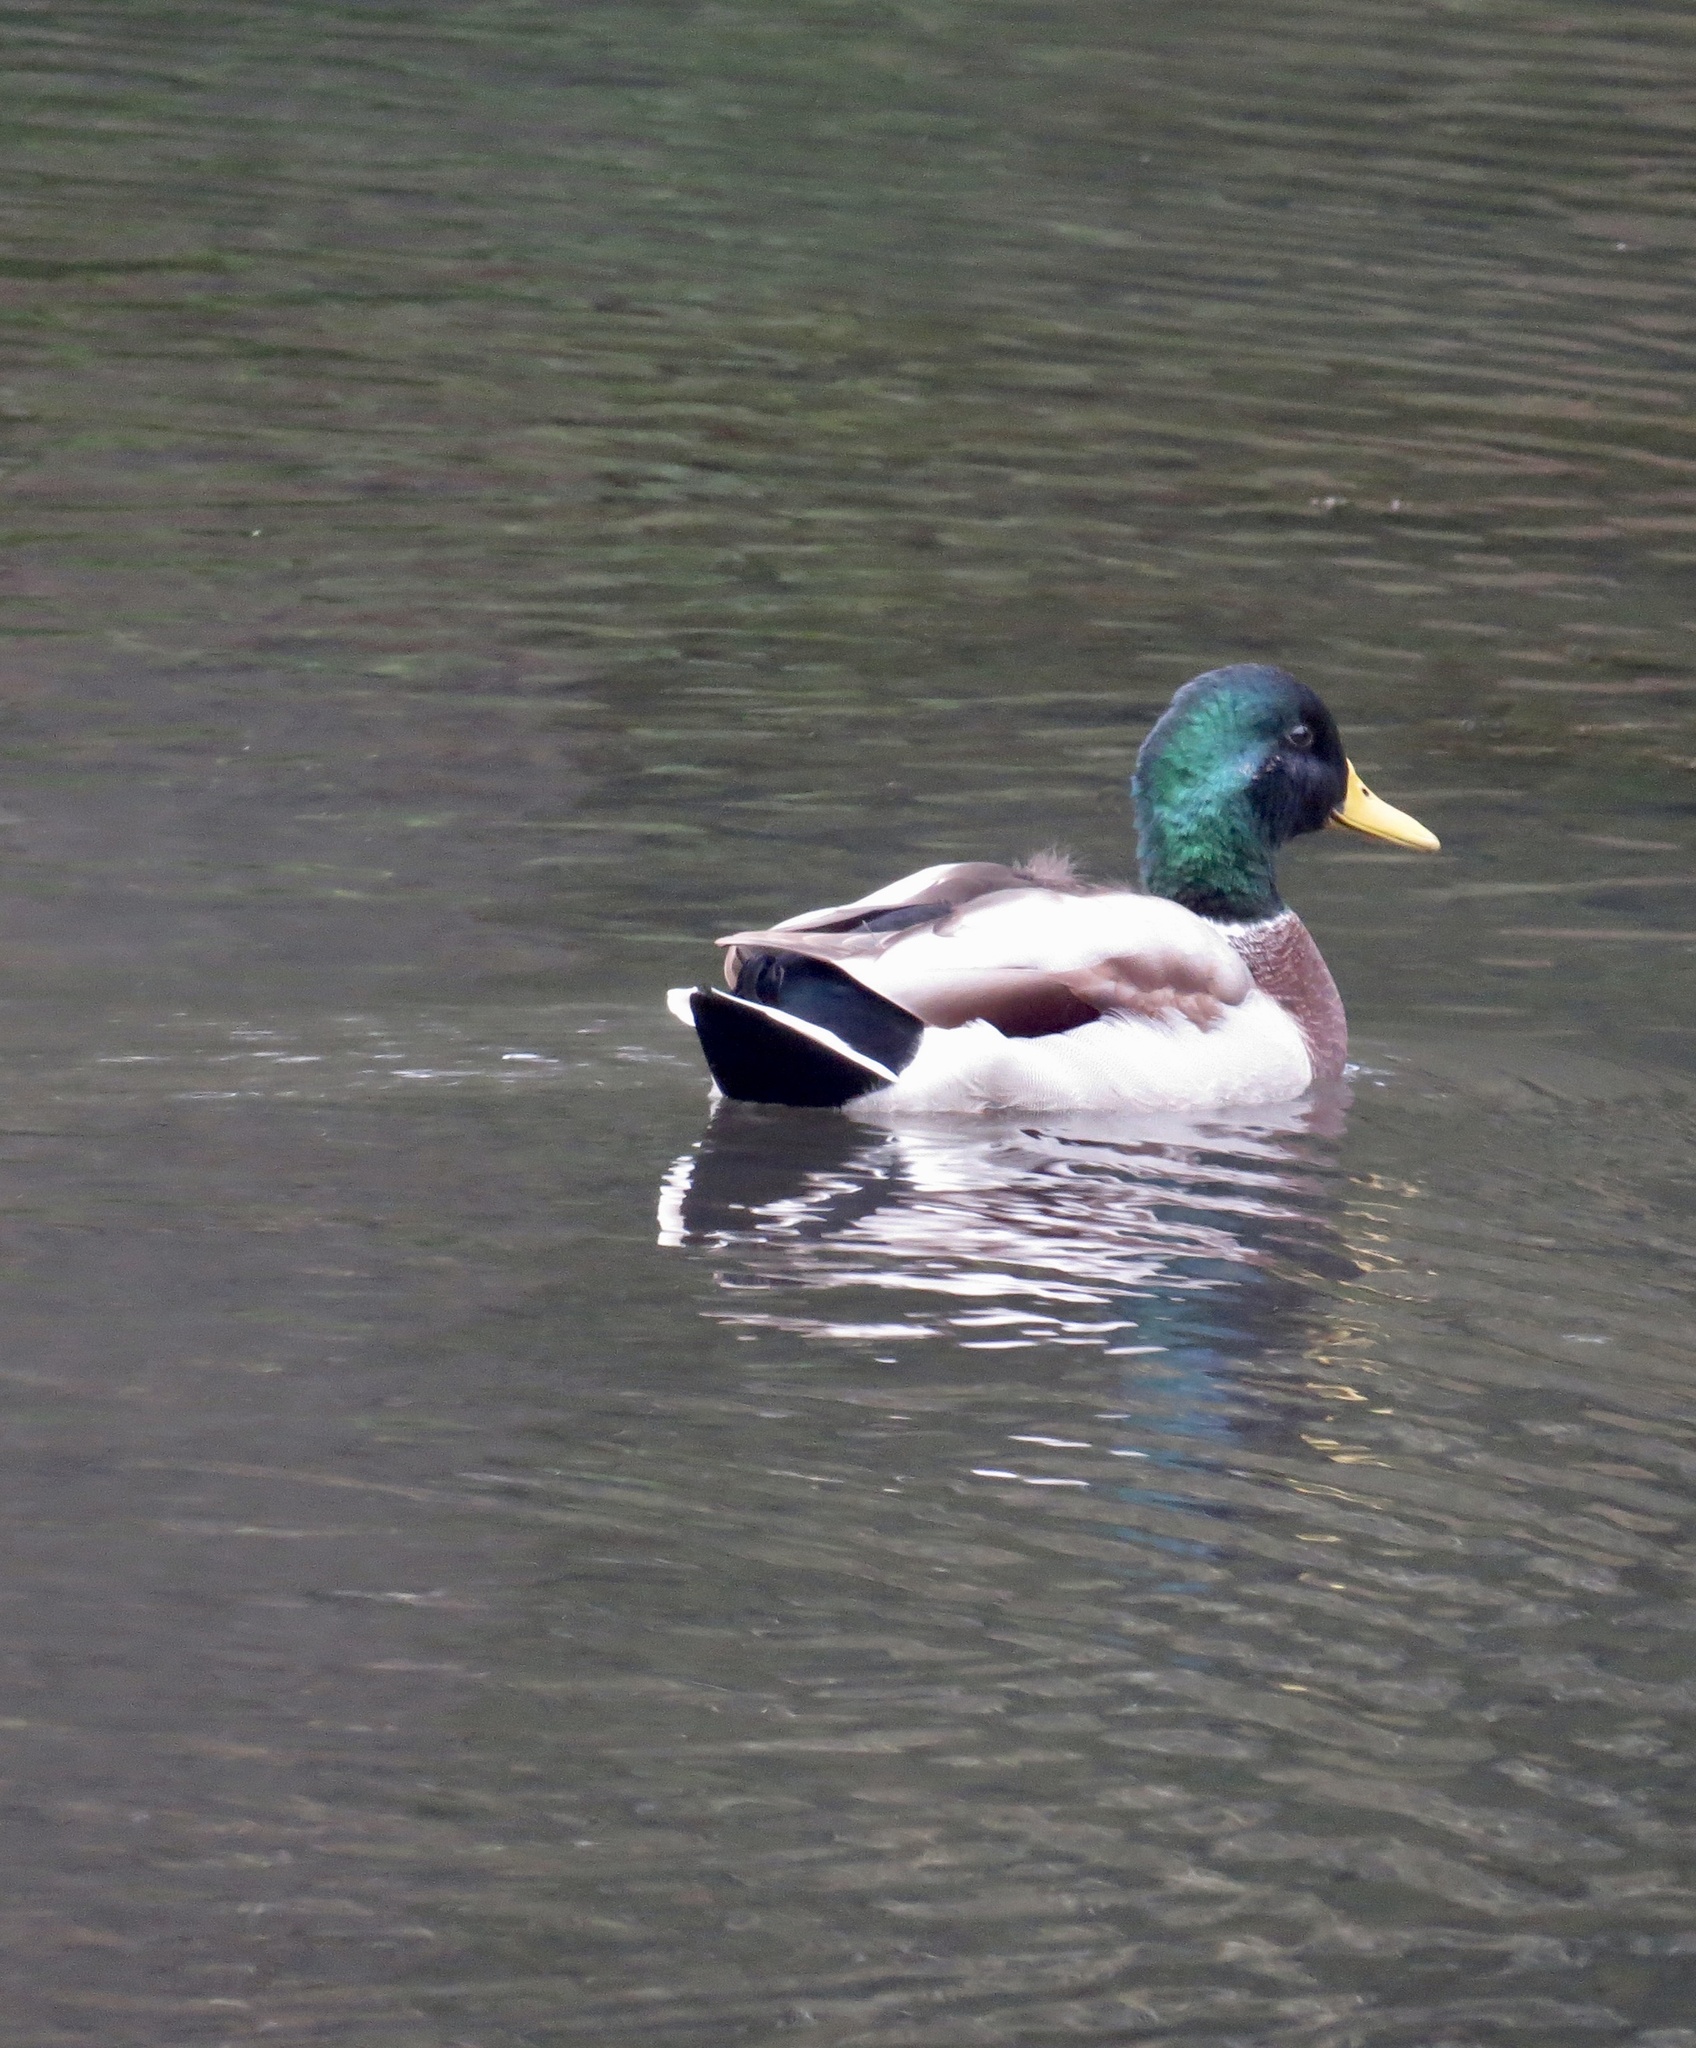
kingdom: Animalia
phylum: Chordata
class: Aves
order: Anseriformes
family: Anatidae
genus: Anas
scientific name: Anas platyrhynchos
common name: Mallard
